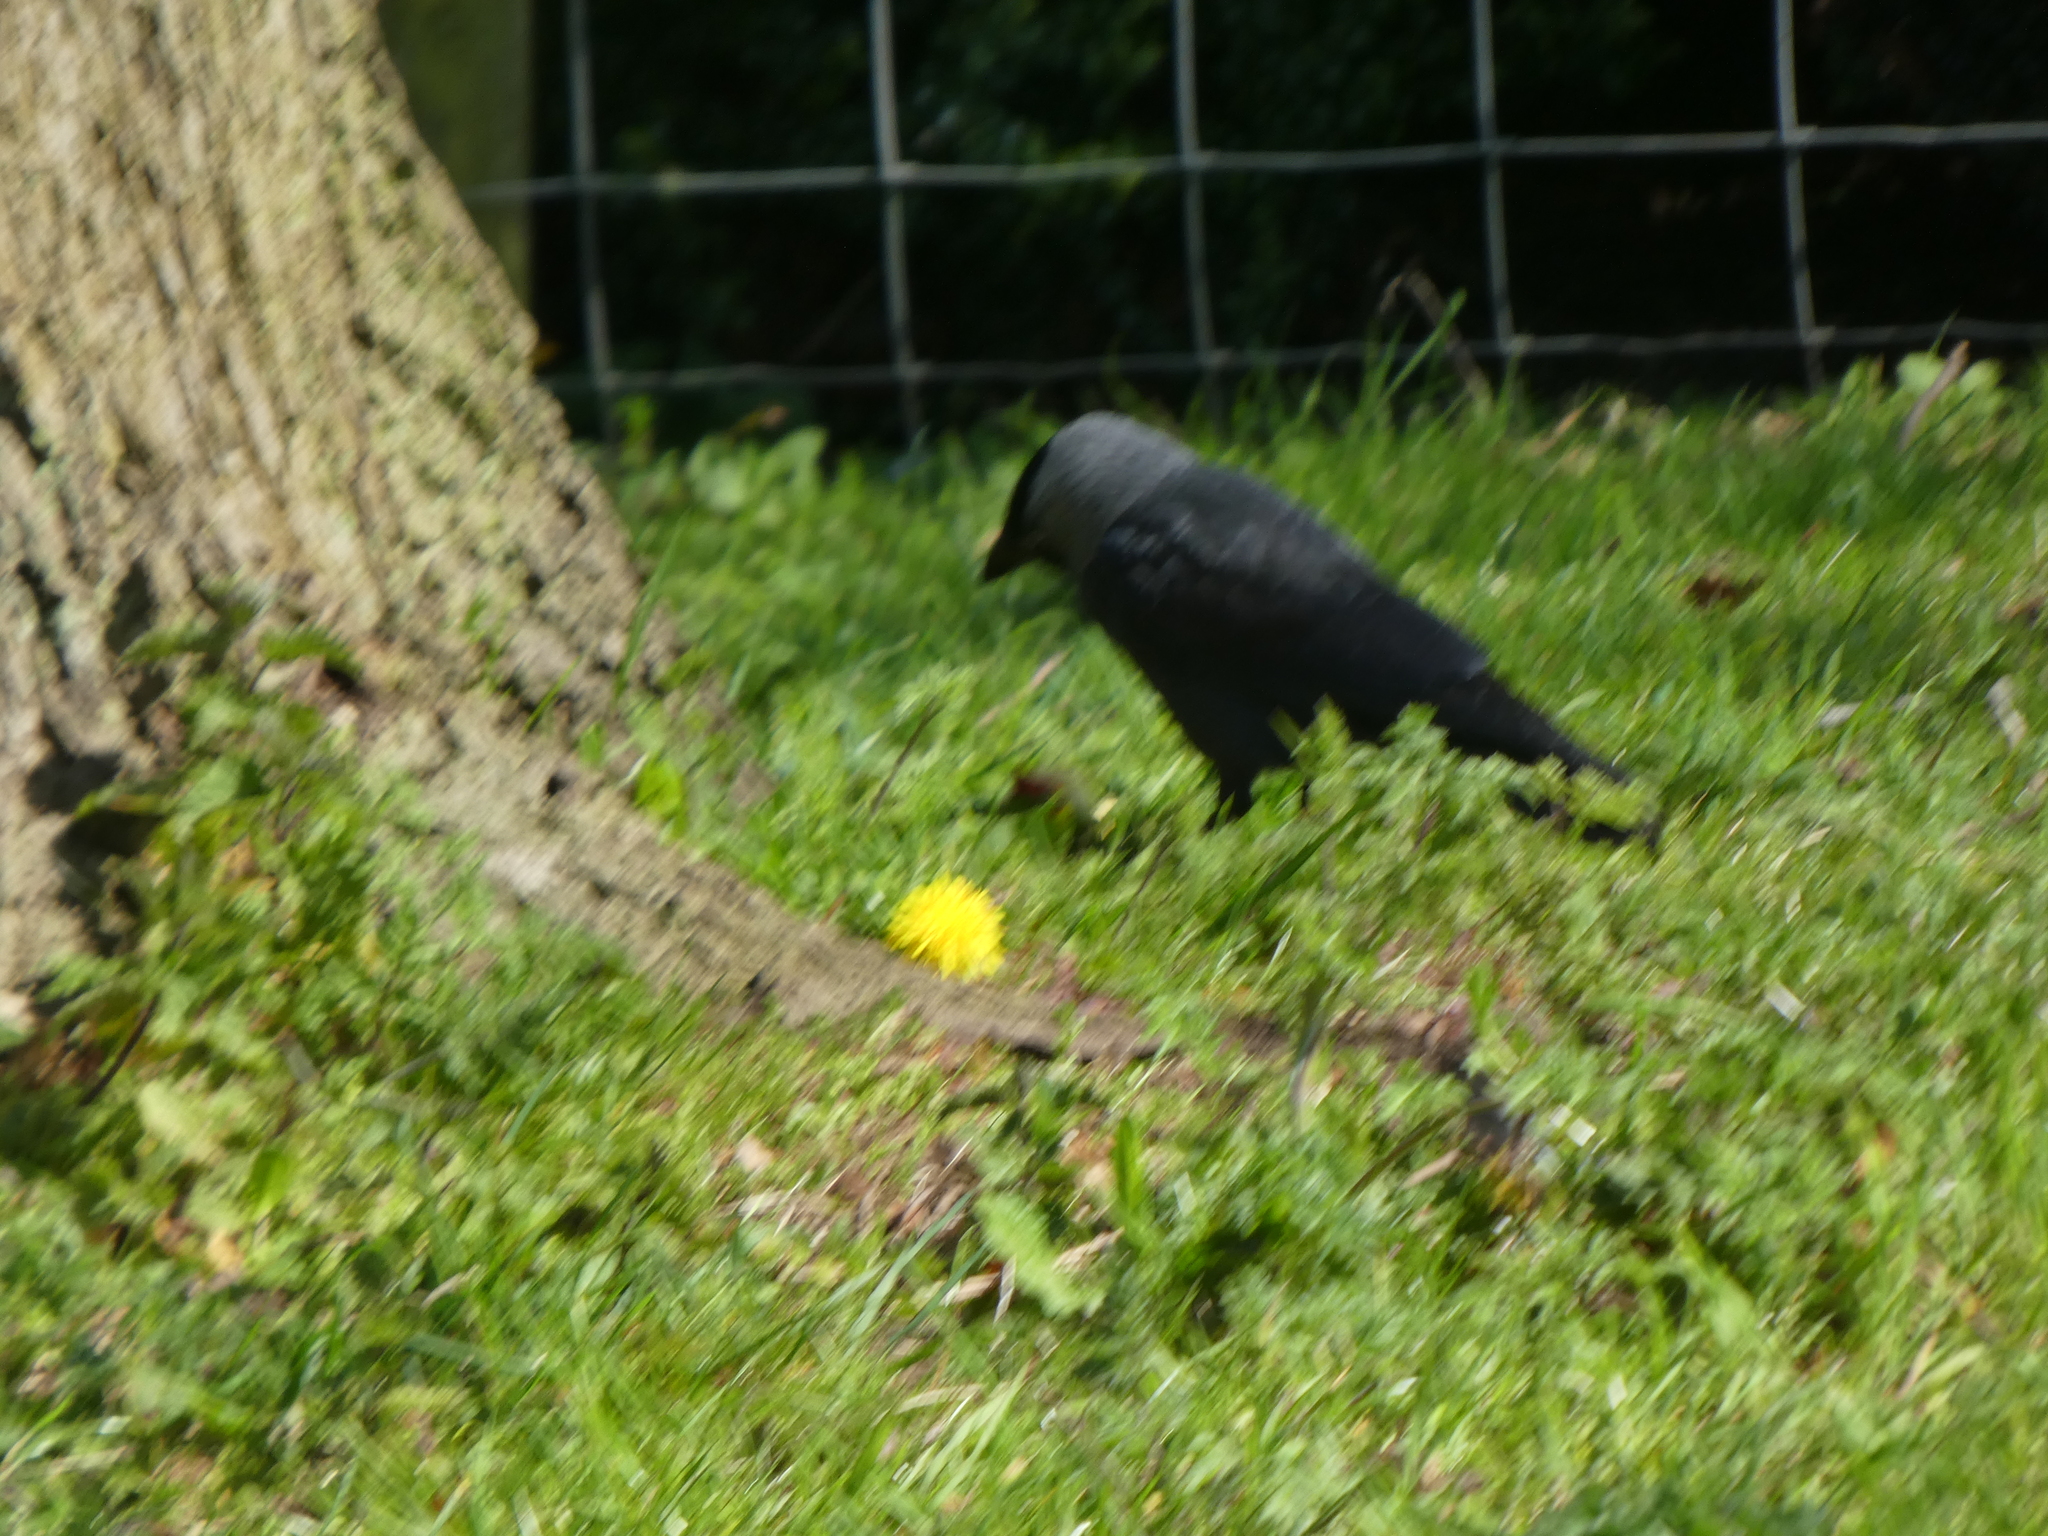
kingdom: Animalia
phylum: Chordata
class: Aves
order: Passeriformes
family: Corvidae
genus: Coloeus
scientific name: Coloeus monedula
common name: Western jackdaw
